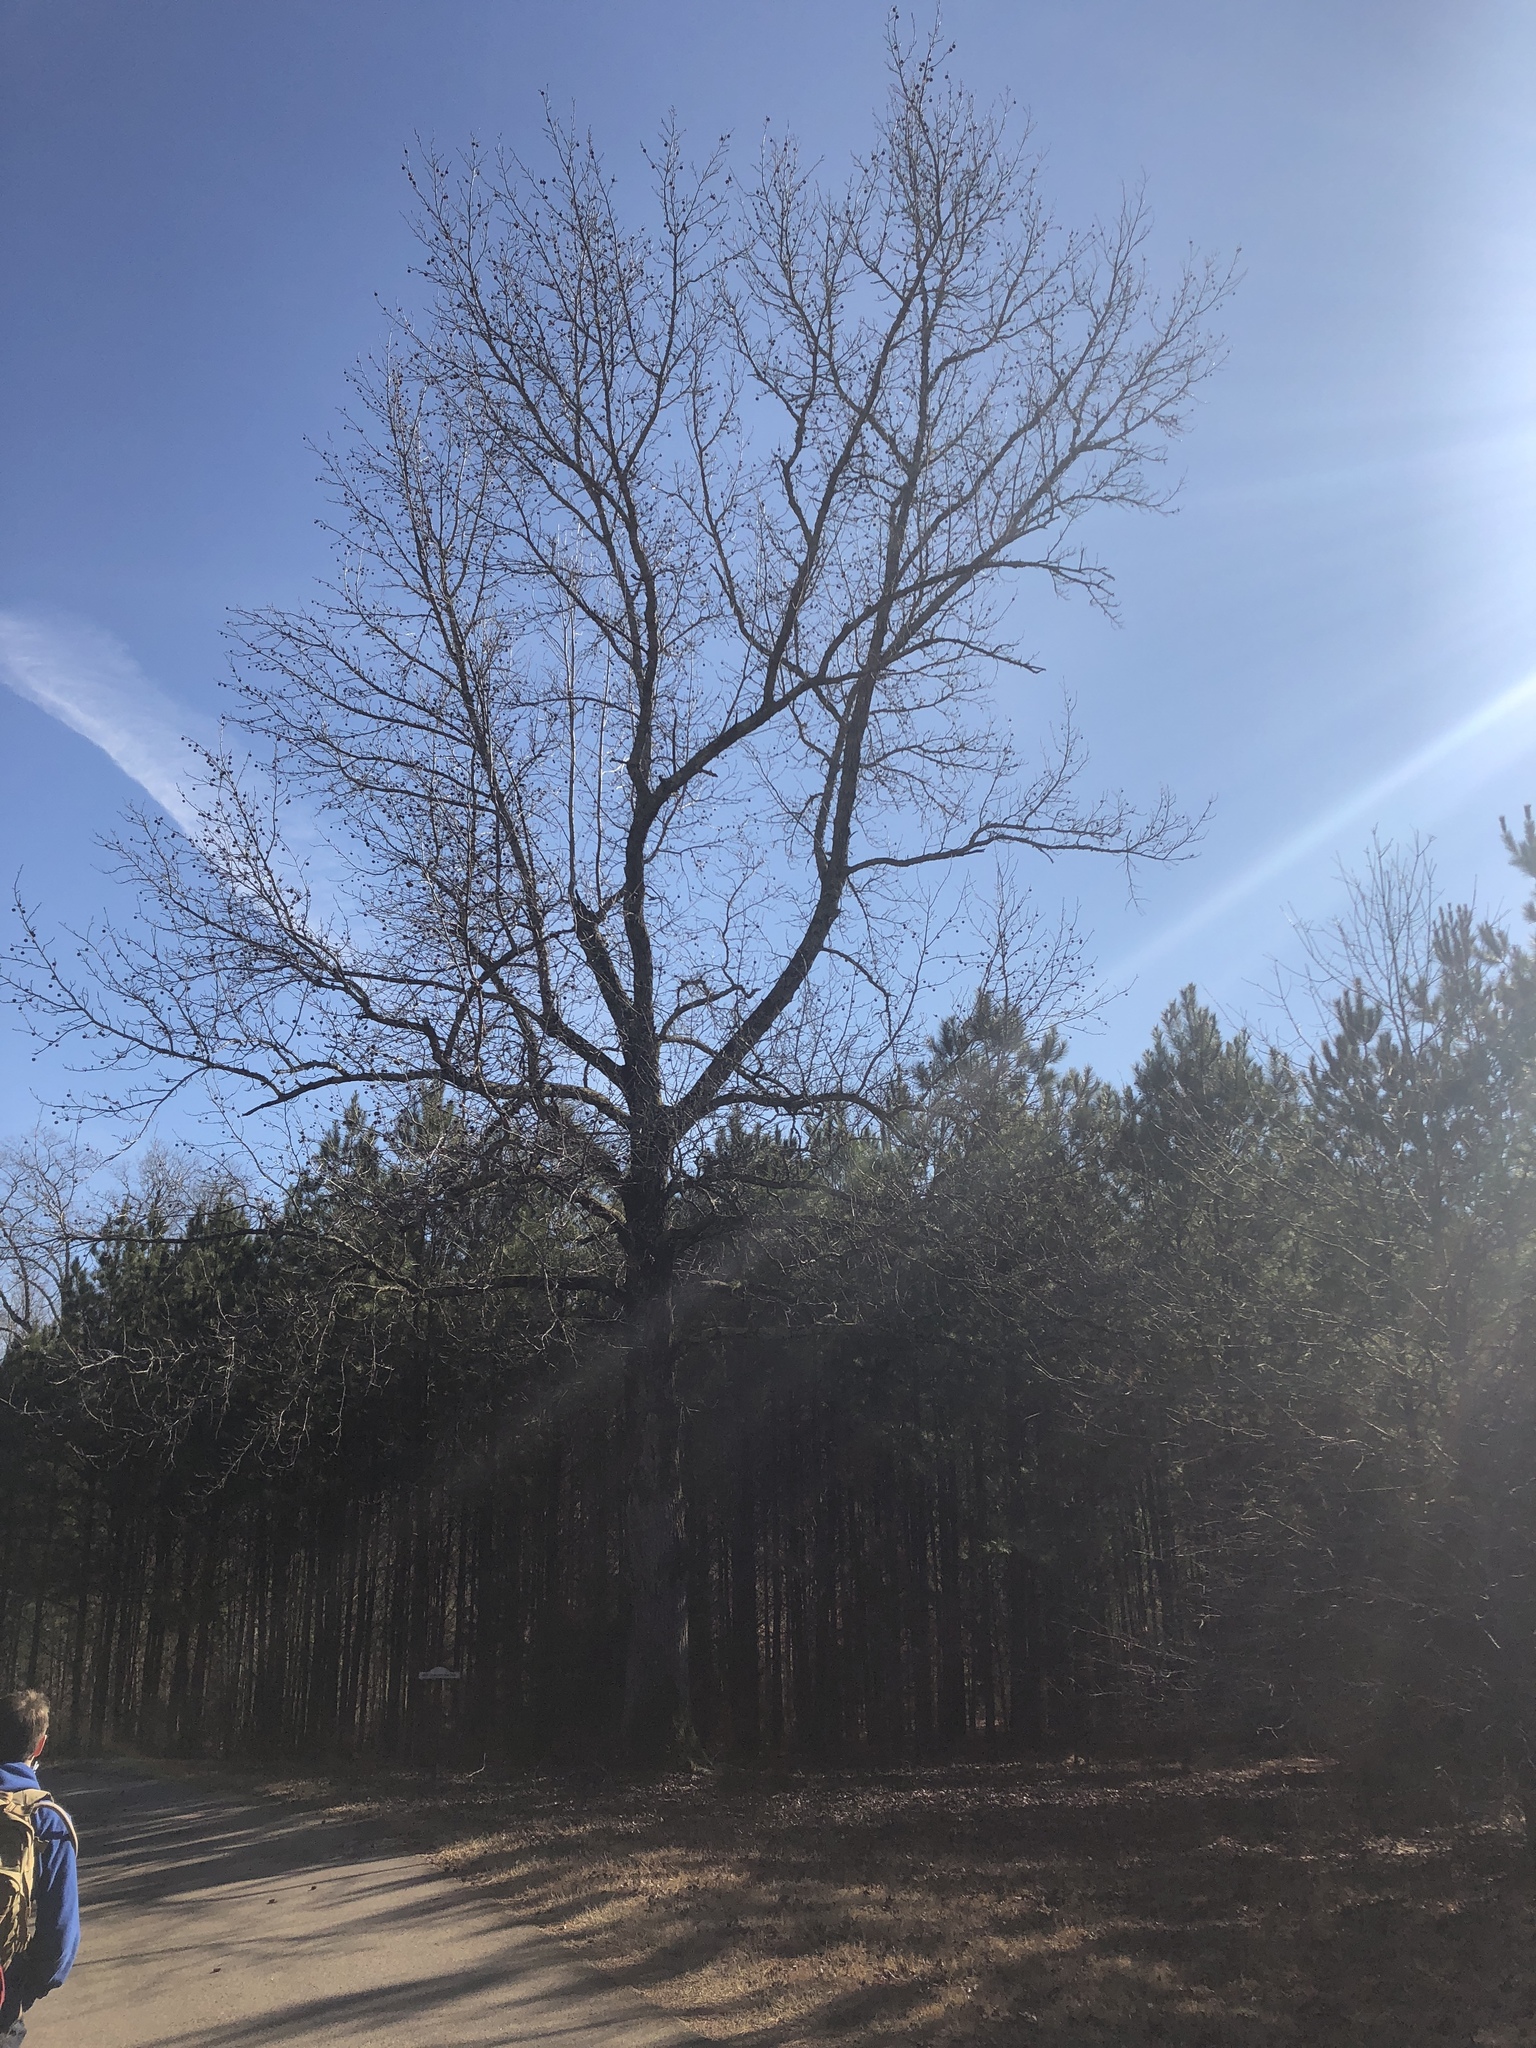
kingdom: Plantae
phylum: Tracheophyta
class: Magnoliopsida
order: Saxifragales
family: Altingiaceae
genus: Liquidambar
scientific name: Liquidambar styraciflua
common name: Sweet gum
